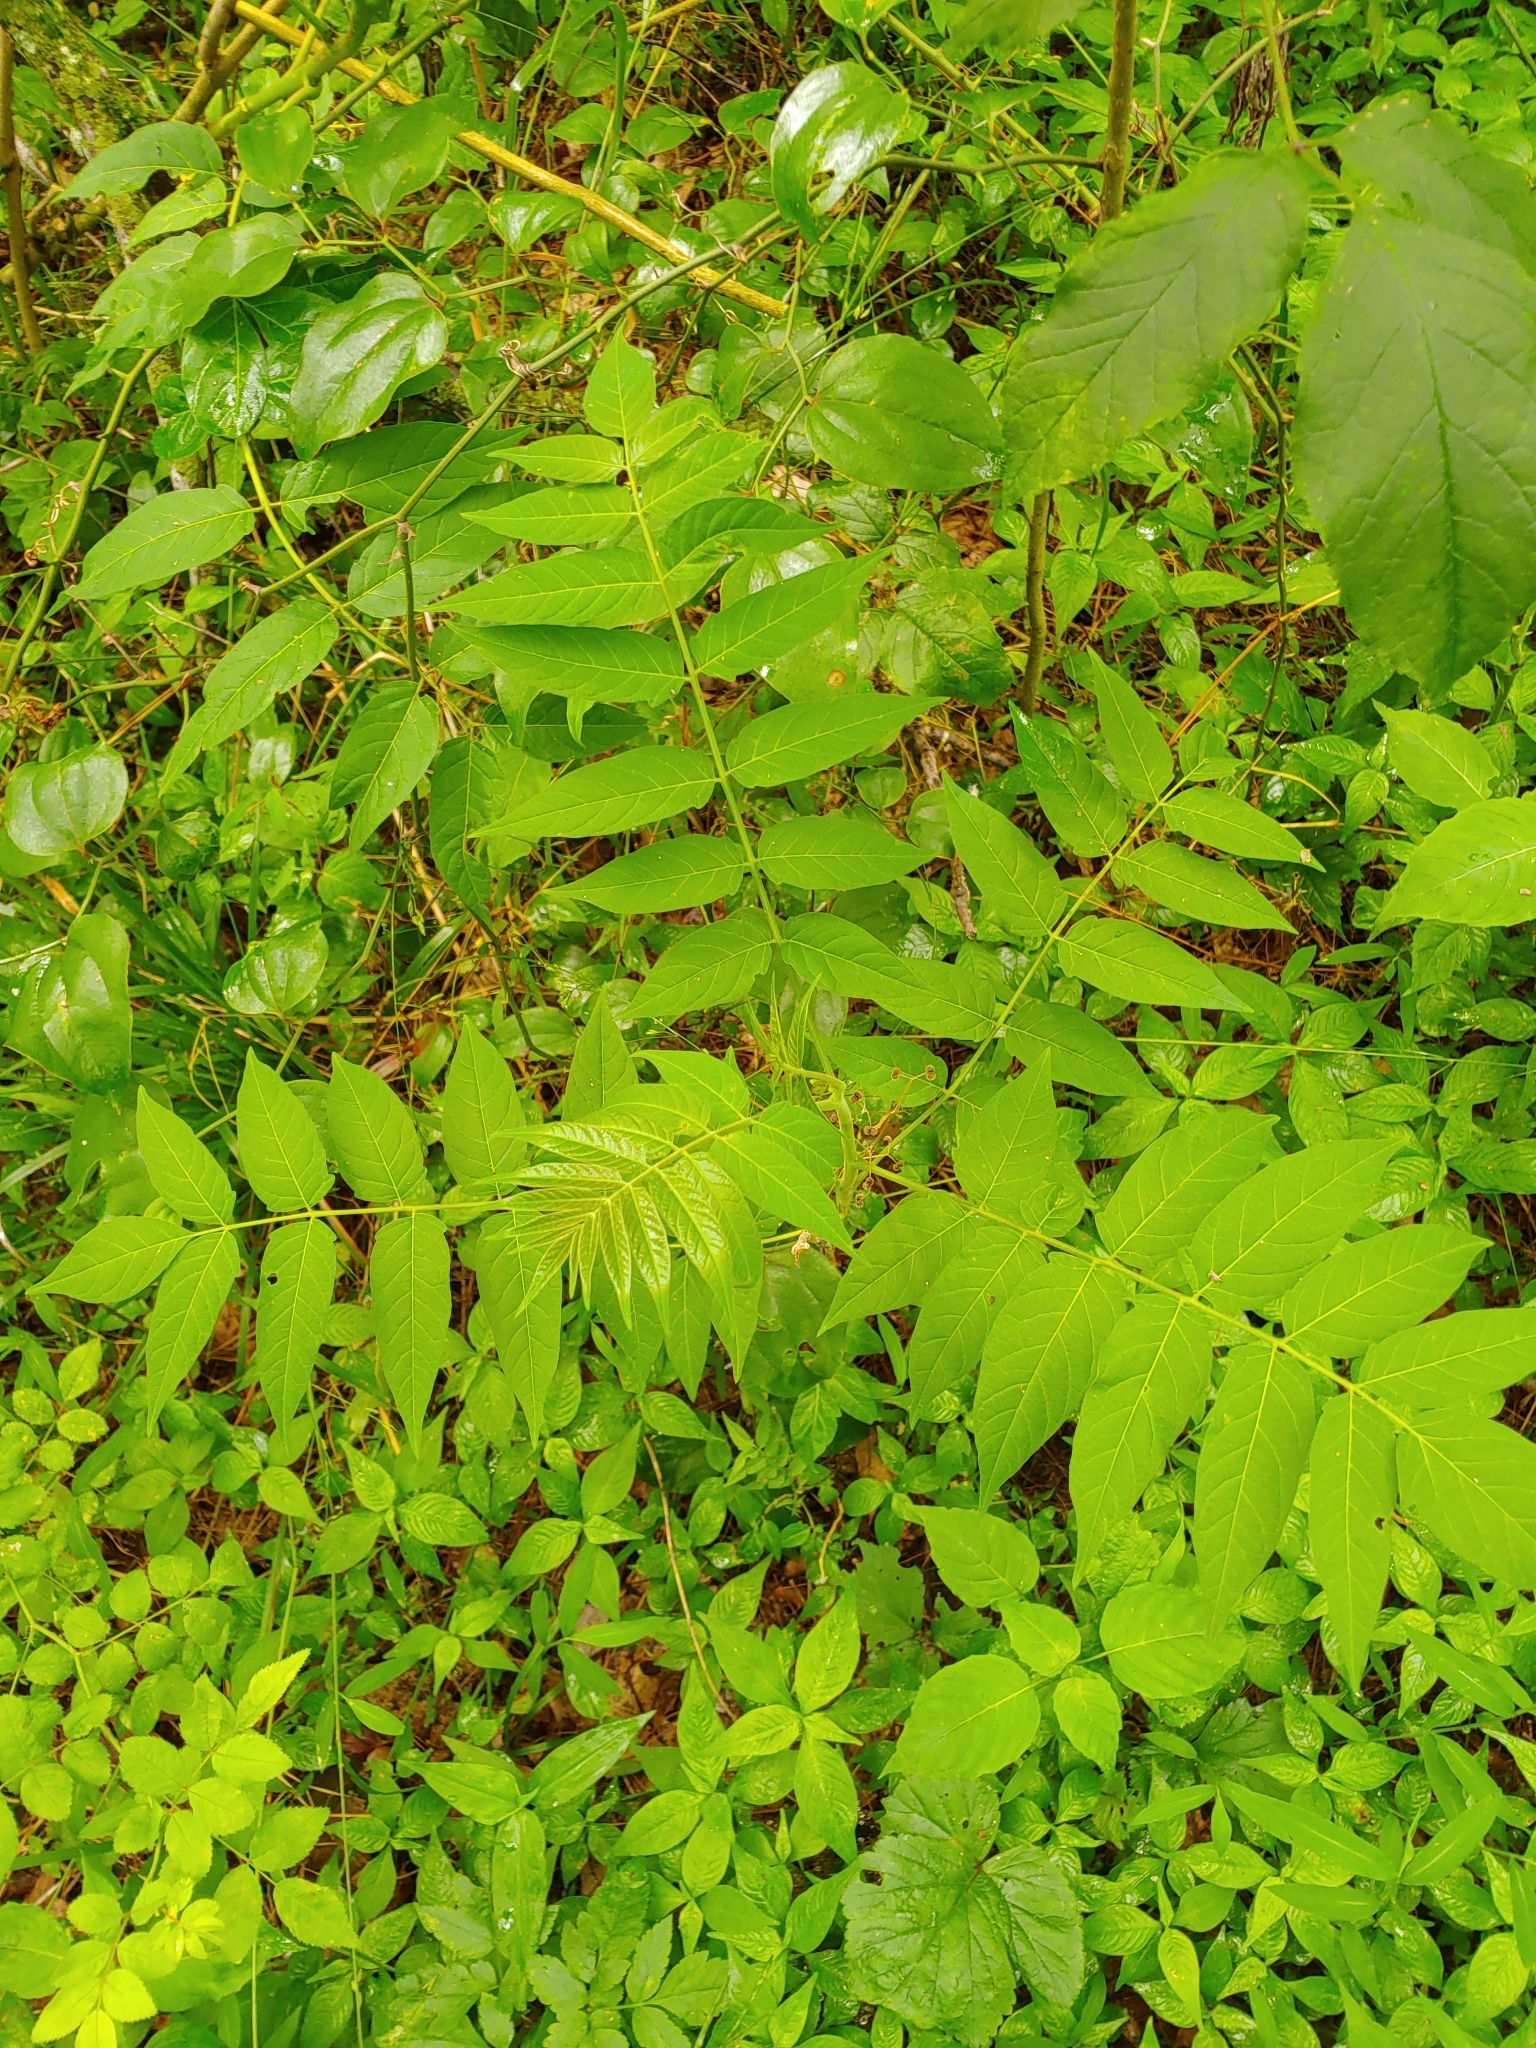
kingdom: Plantae
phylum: Tracheophyta
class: Magnoliopsida
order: Sapindales
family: Simaroubaceae
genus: Ailanthus
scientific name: Ailanthus altissima
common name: Tree-of-heaven
